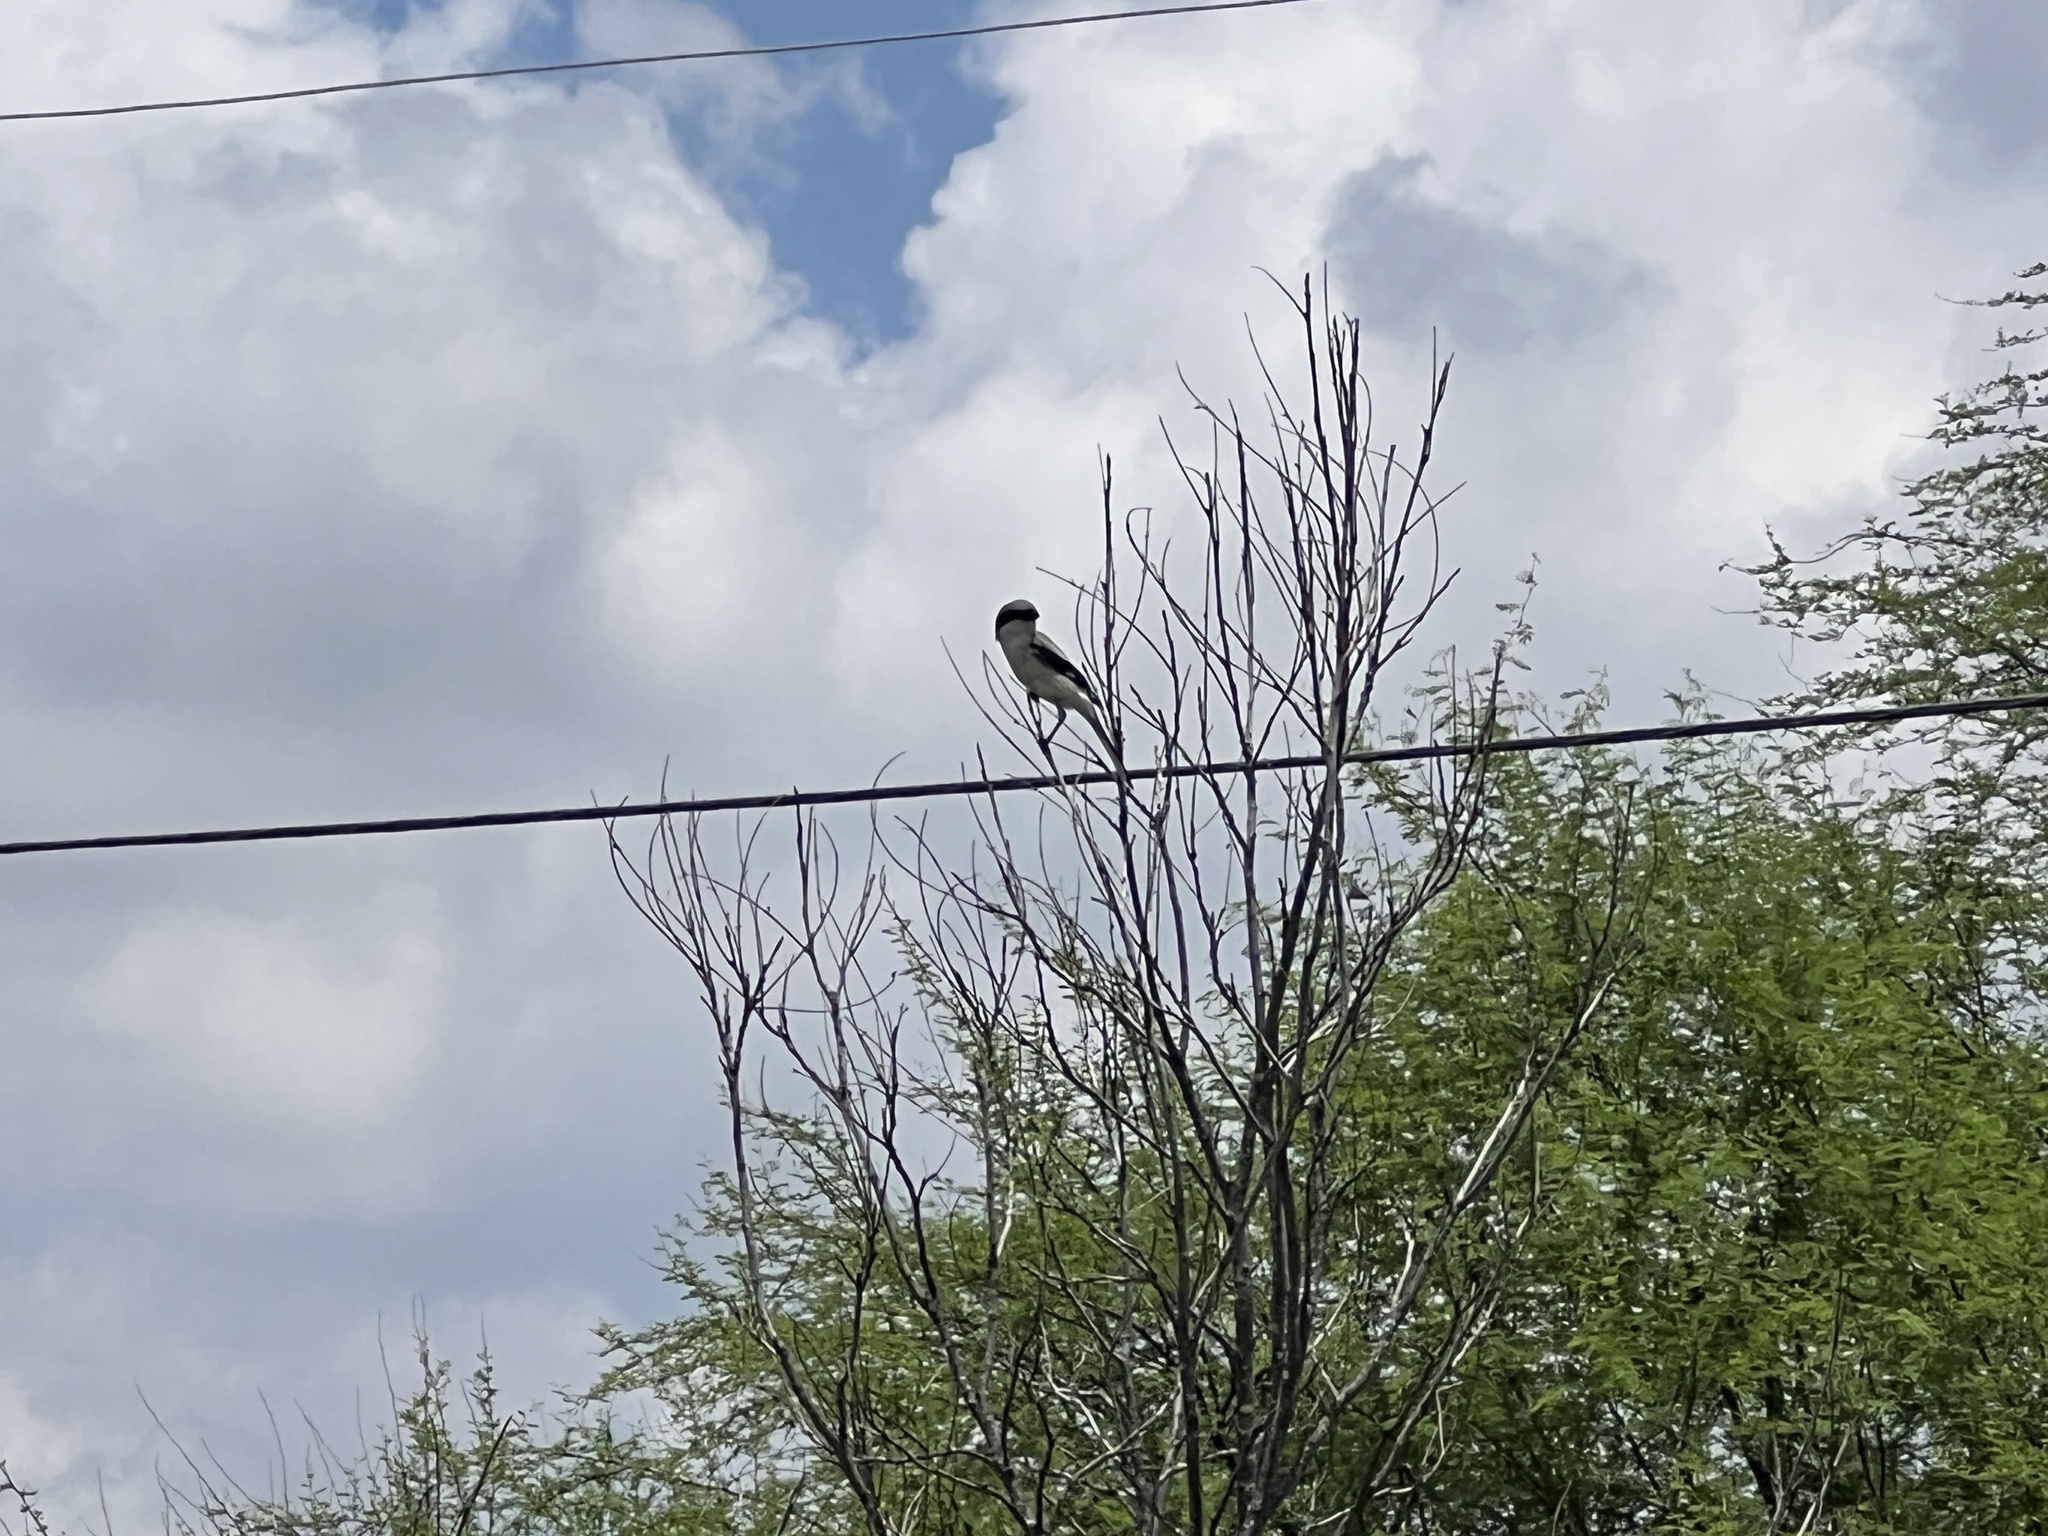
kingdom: Animalia
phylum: Chordata
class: Aves
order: Passeriformes
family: Laniidae
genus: Lanius
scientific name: Lanius ludovicianus
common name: Loggerhead shrike
